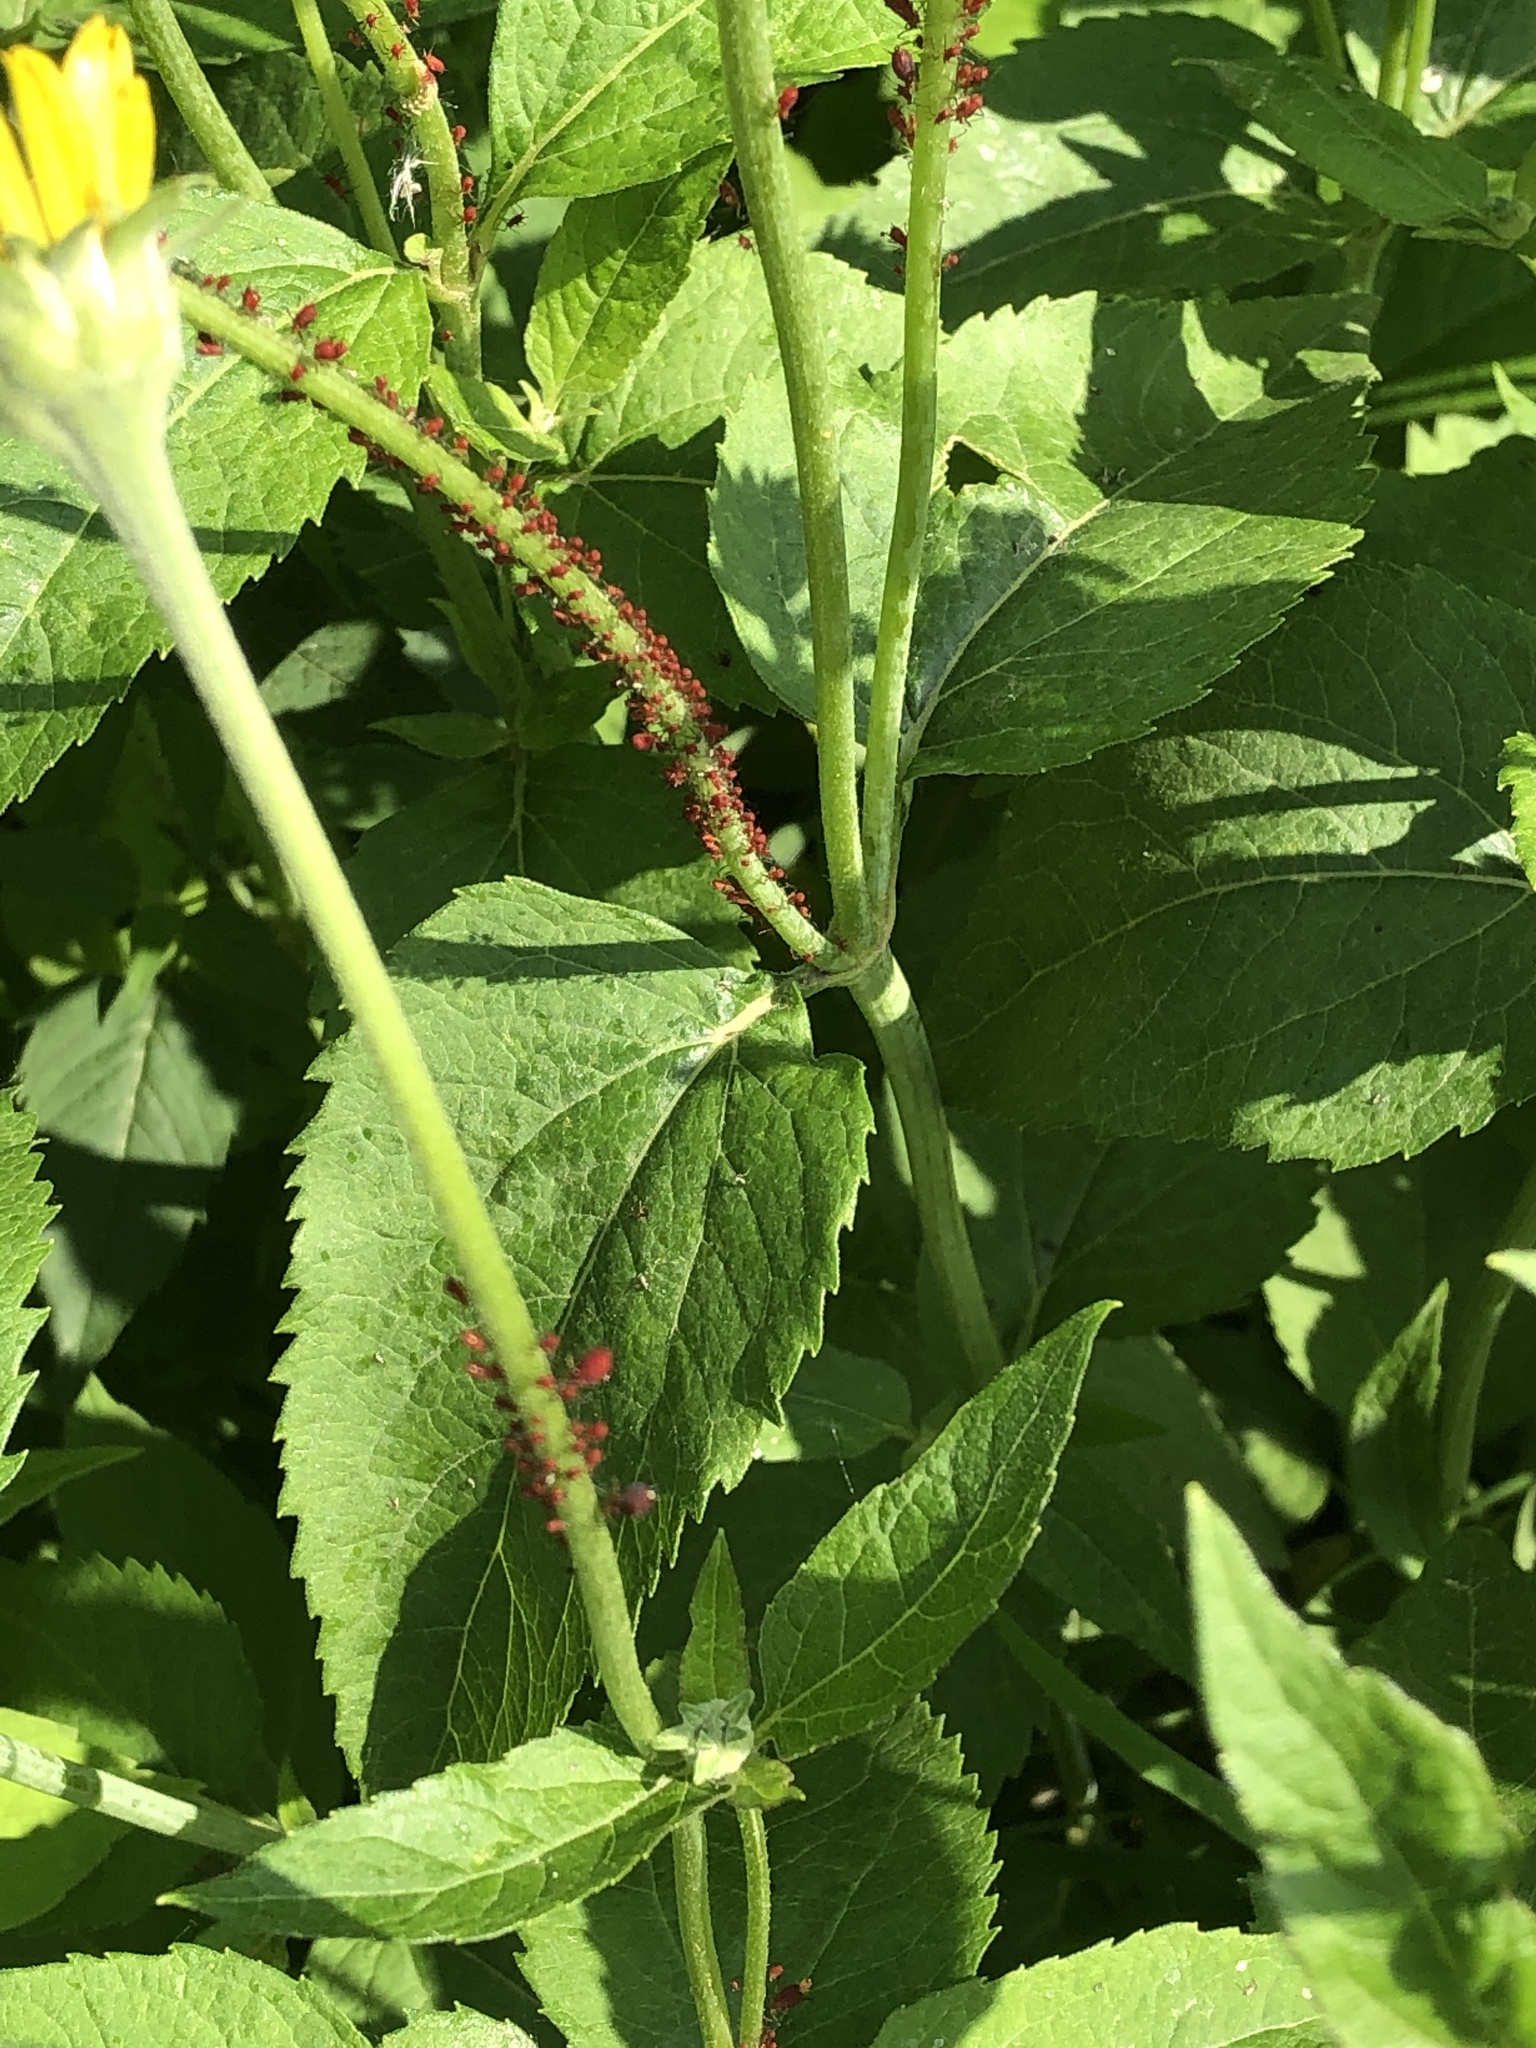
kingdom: Plantae
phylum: Tracheophyta
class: Magnoliopsida
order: Asterales
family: Asteraceae
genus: Heliopsis
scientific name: Heliopsis helianthoides
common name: False sunflower
